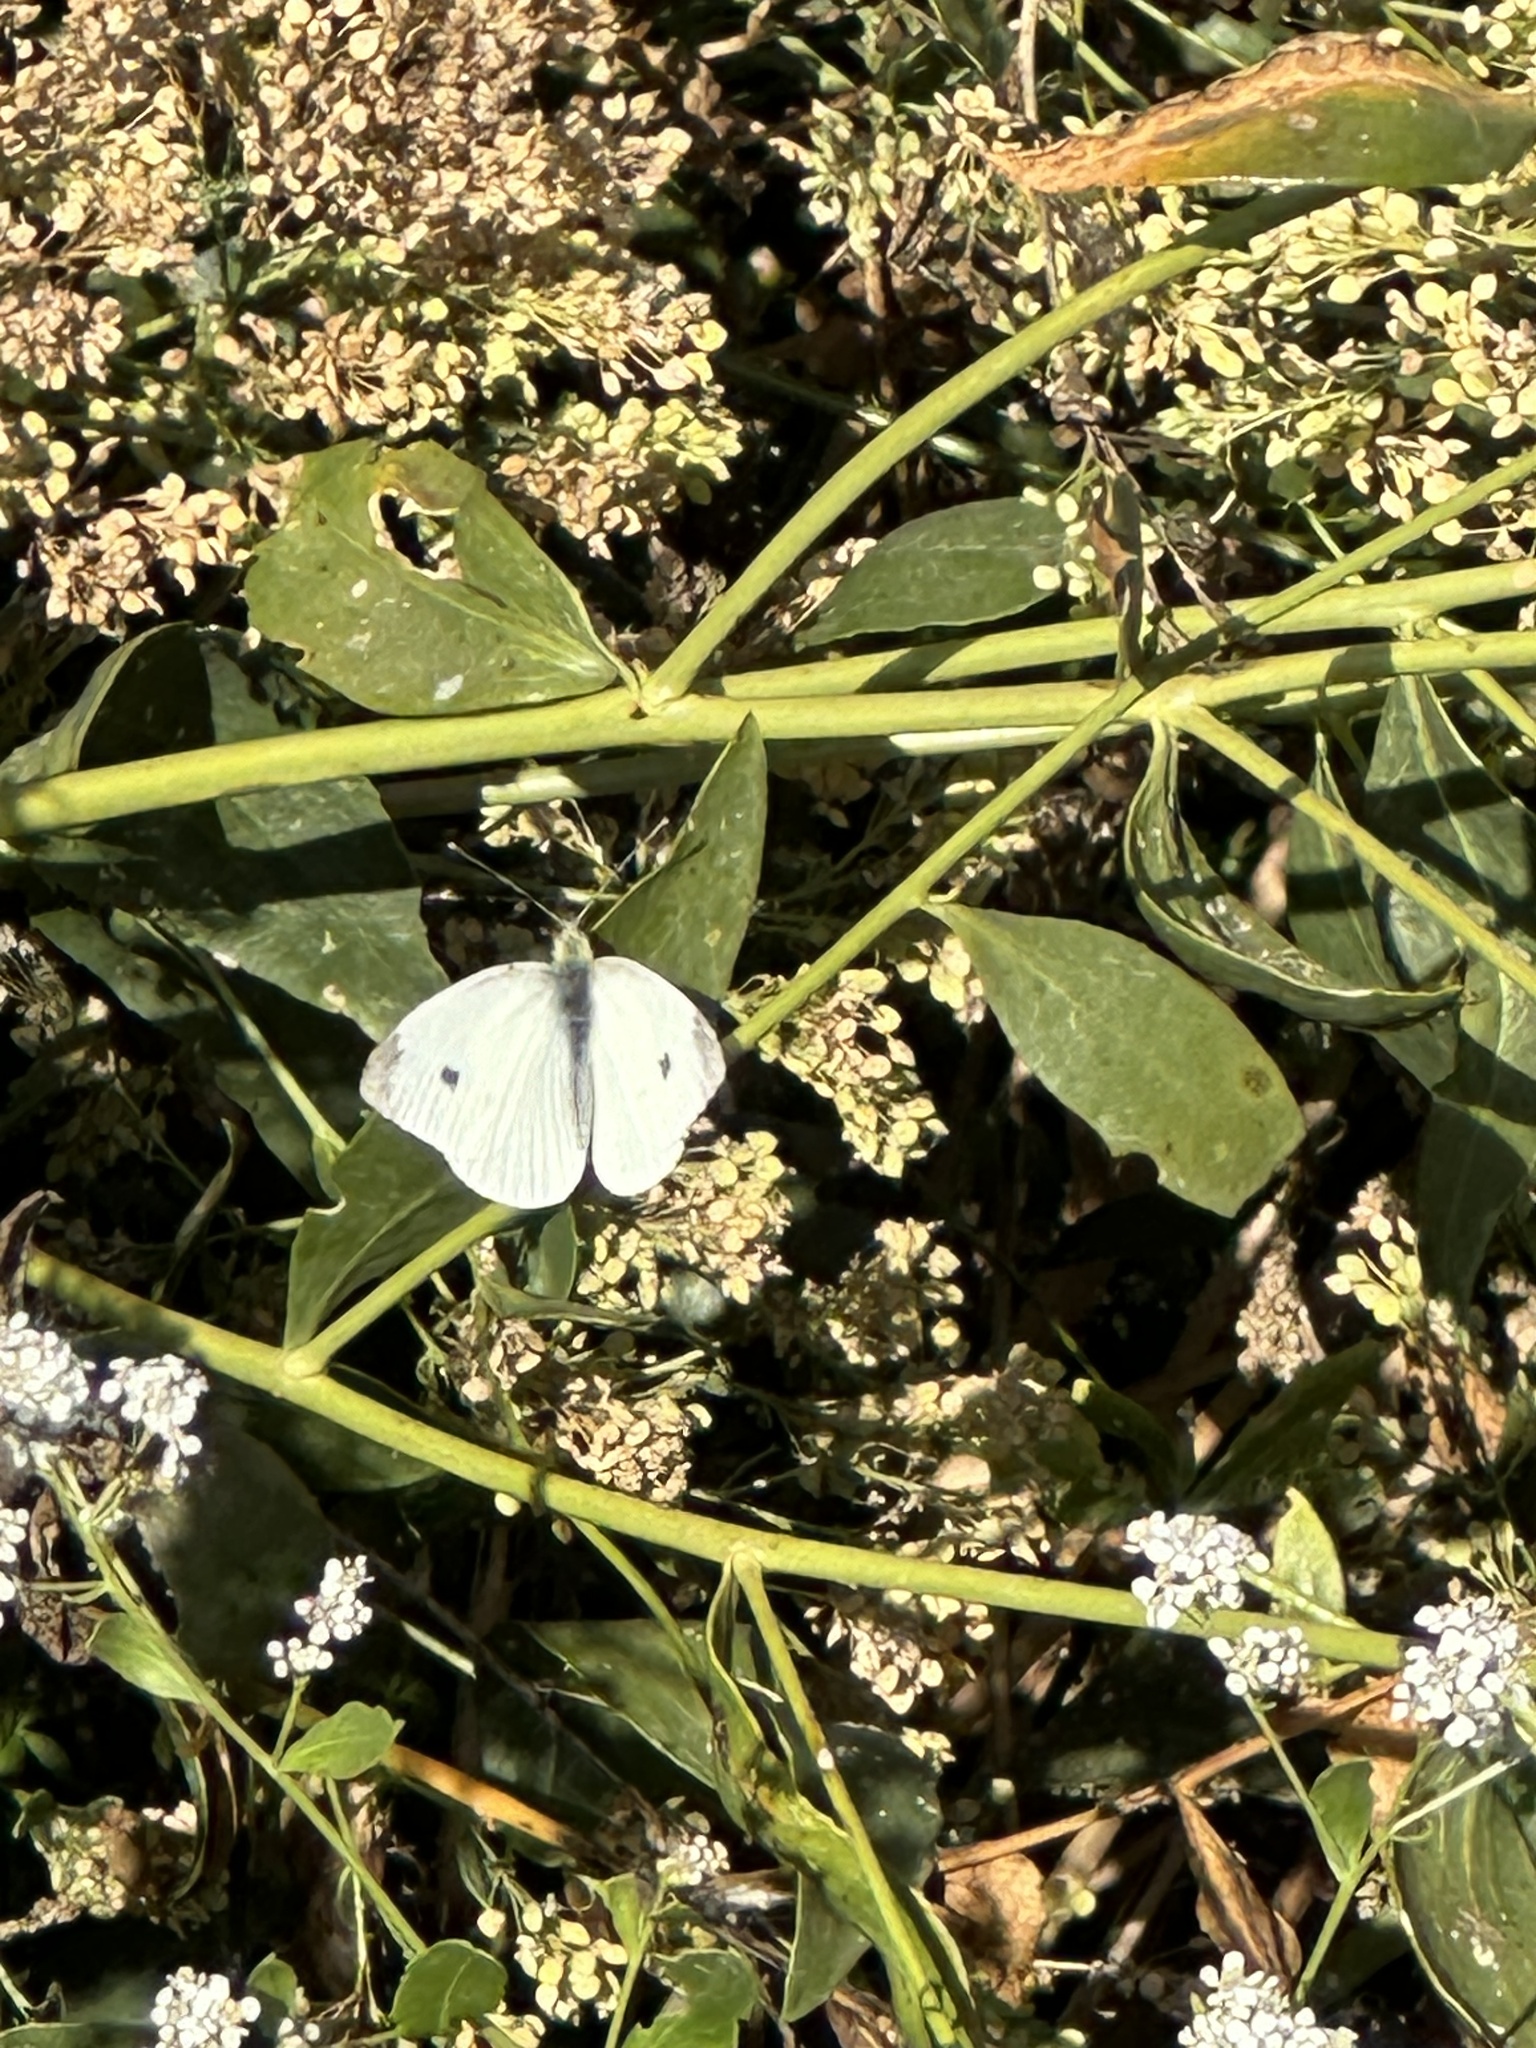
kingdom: Animalia
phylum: Arthropoda
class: Insecta
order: Lepidoptera
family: Pieridae
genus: Pieris
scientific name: Pieris rapae
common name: Small white
